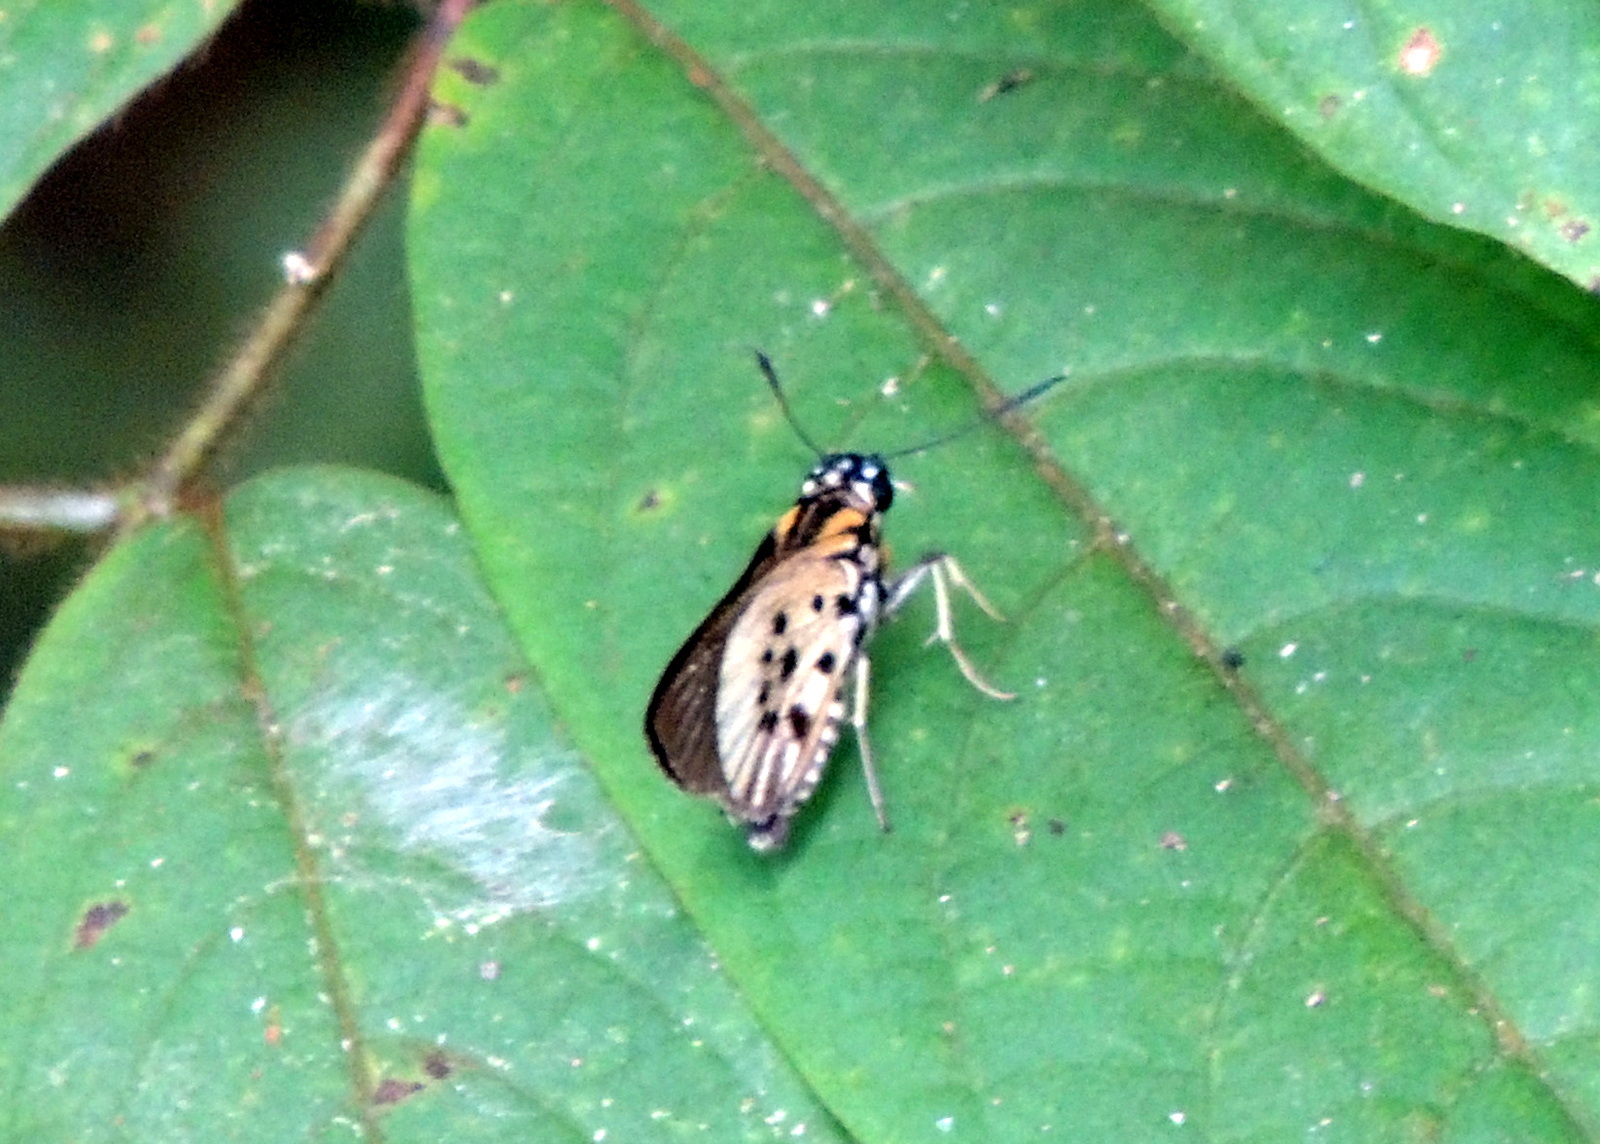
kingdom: Animalia
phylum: Arthropoda
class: Insecta
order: Lepidoptera
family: Hesperiidae
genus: Fresna
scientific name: Fresna nyassae
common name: Variegated acraea hopper
